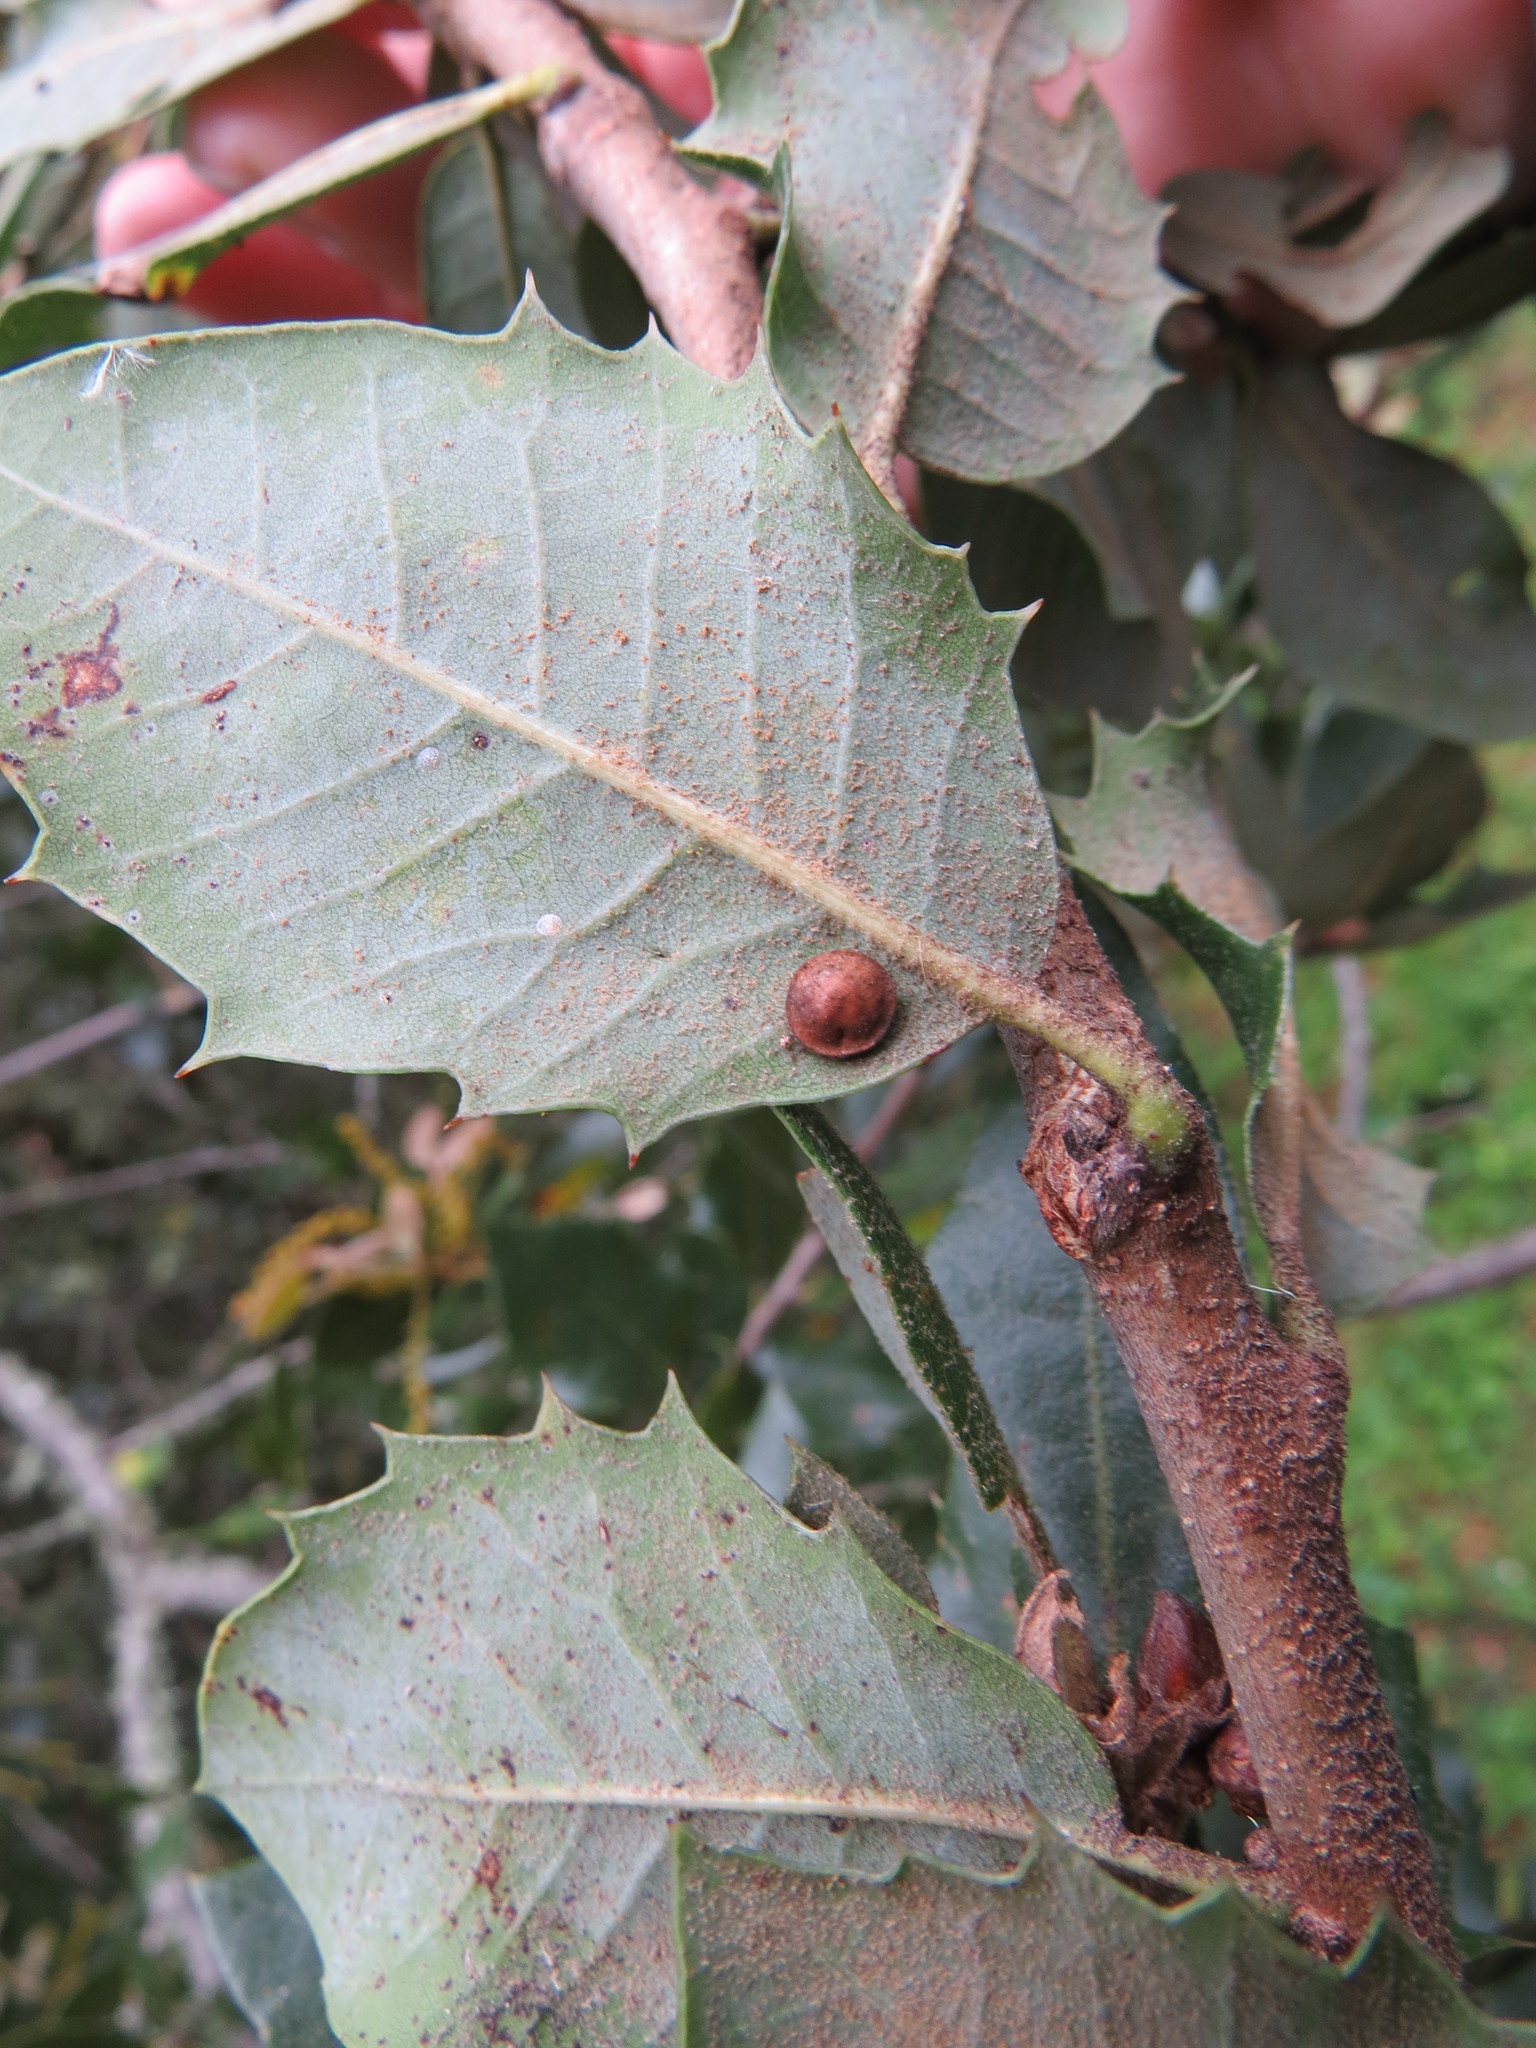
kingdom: Animalia
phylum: Arthropoda
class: Insecta
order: Hymenoptera
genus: Paracraspis
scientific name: Paracraspis
